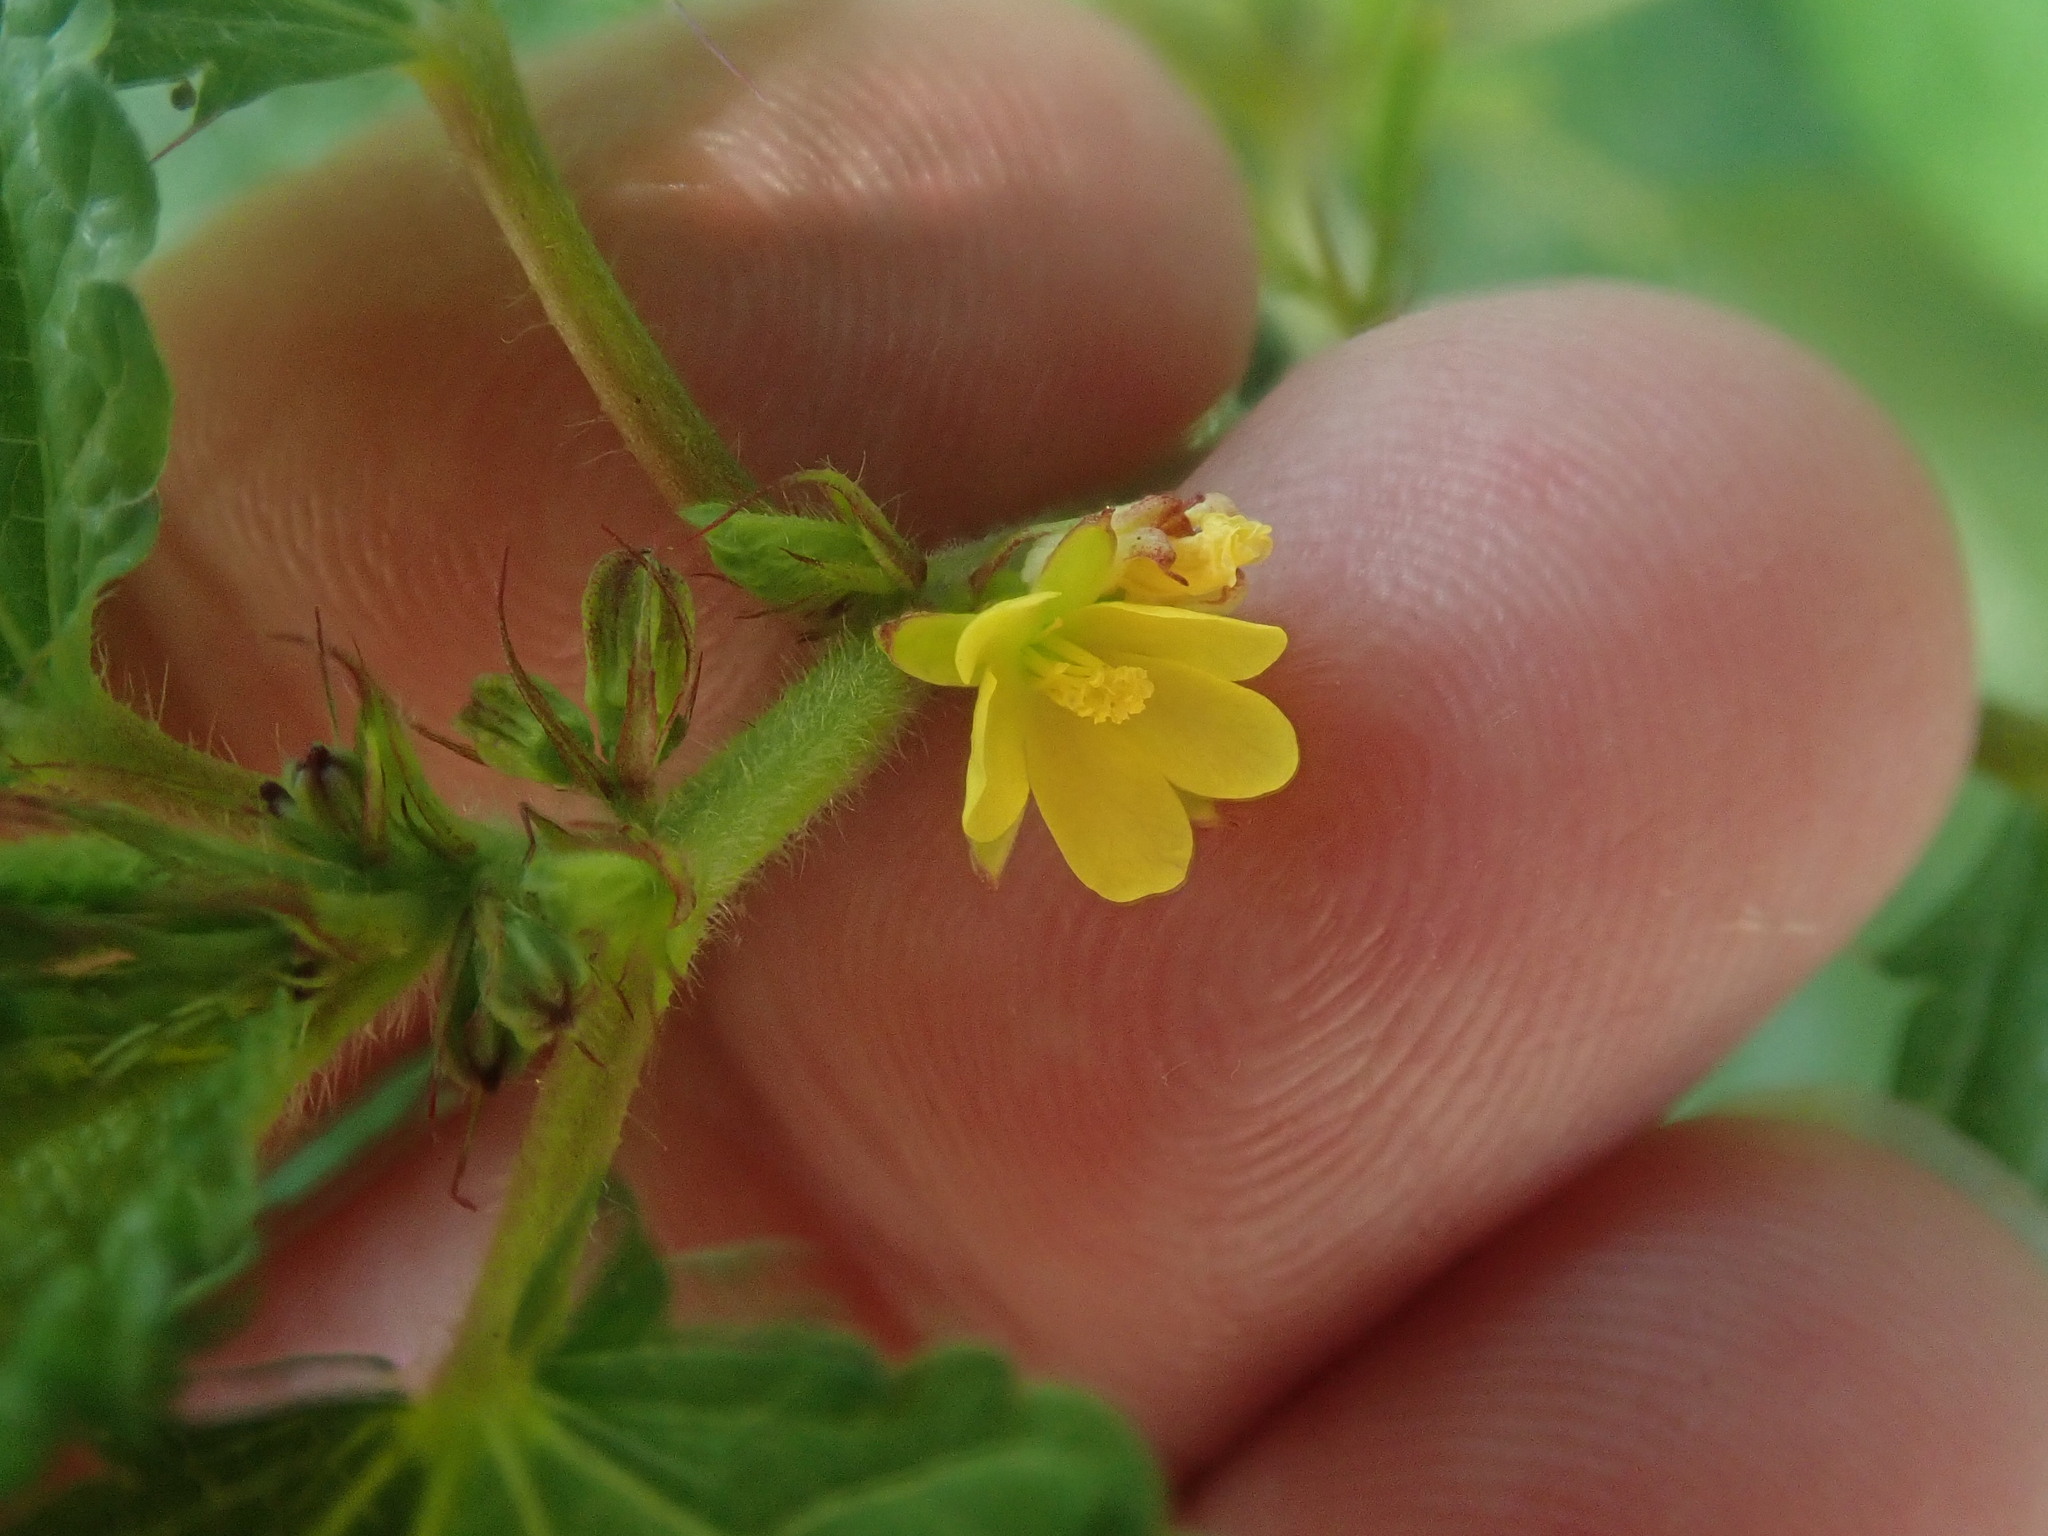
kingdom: Plantae
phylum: Tracheophyta
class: Magnoliopsida
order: Malvales
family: Malvaceae
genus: Corchorus
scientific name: Corchorus aestuans
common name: Jute
